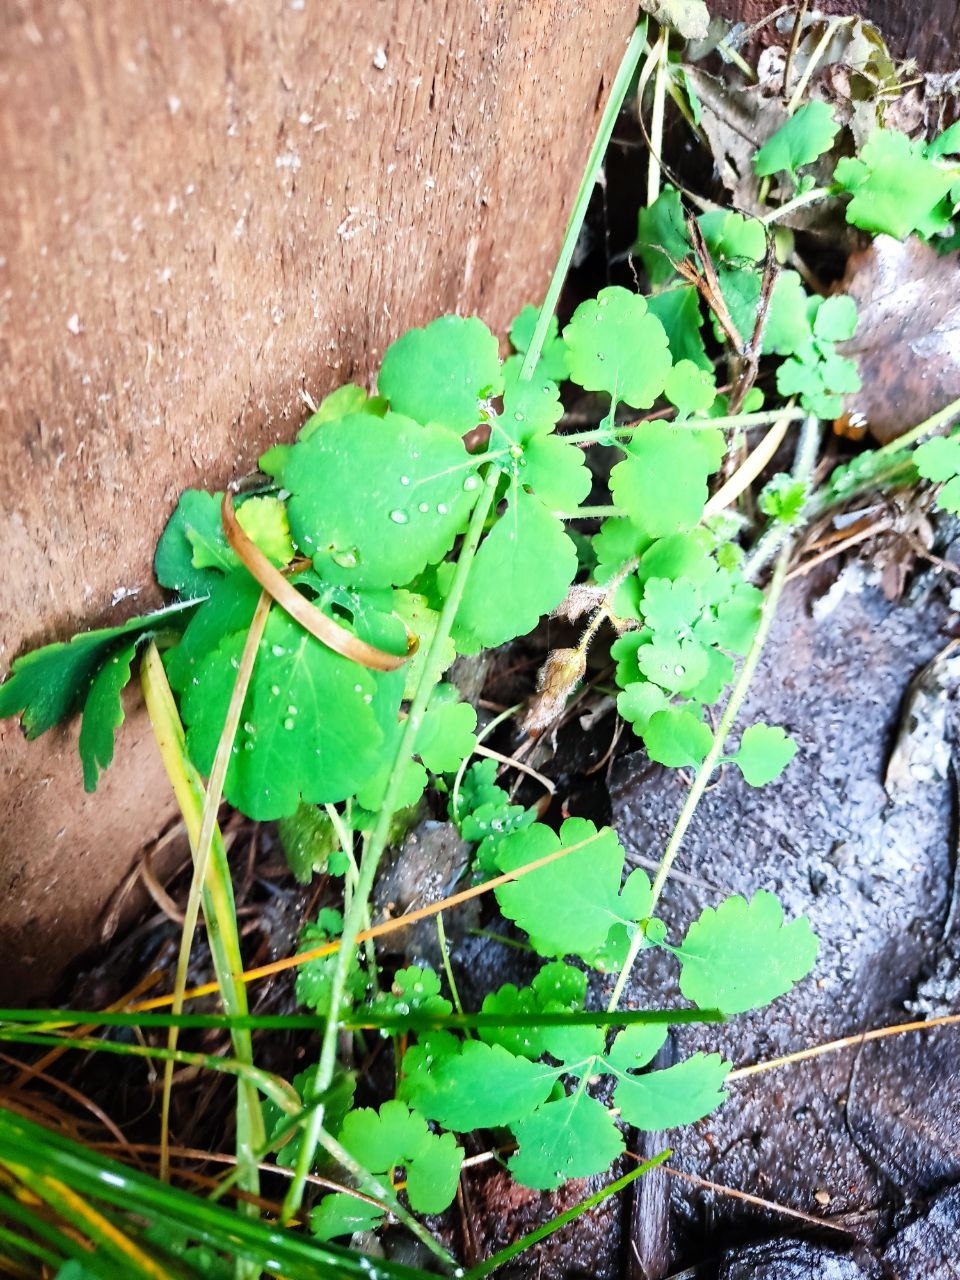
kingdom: Plantae
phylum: Tracheophyta
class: Magnoliopsida
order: Ranunculales
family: Papaveraceae
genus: Chelidonium
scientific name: Chelidonium majus
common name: Greater celandine
